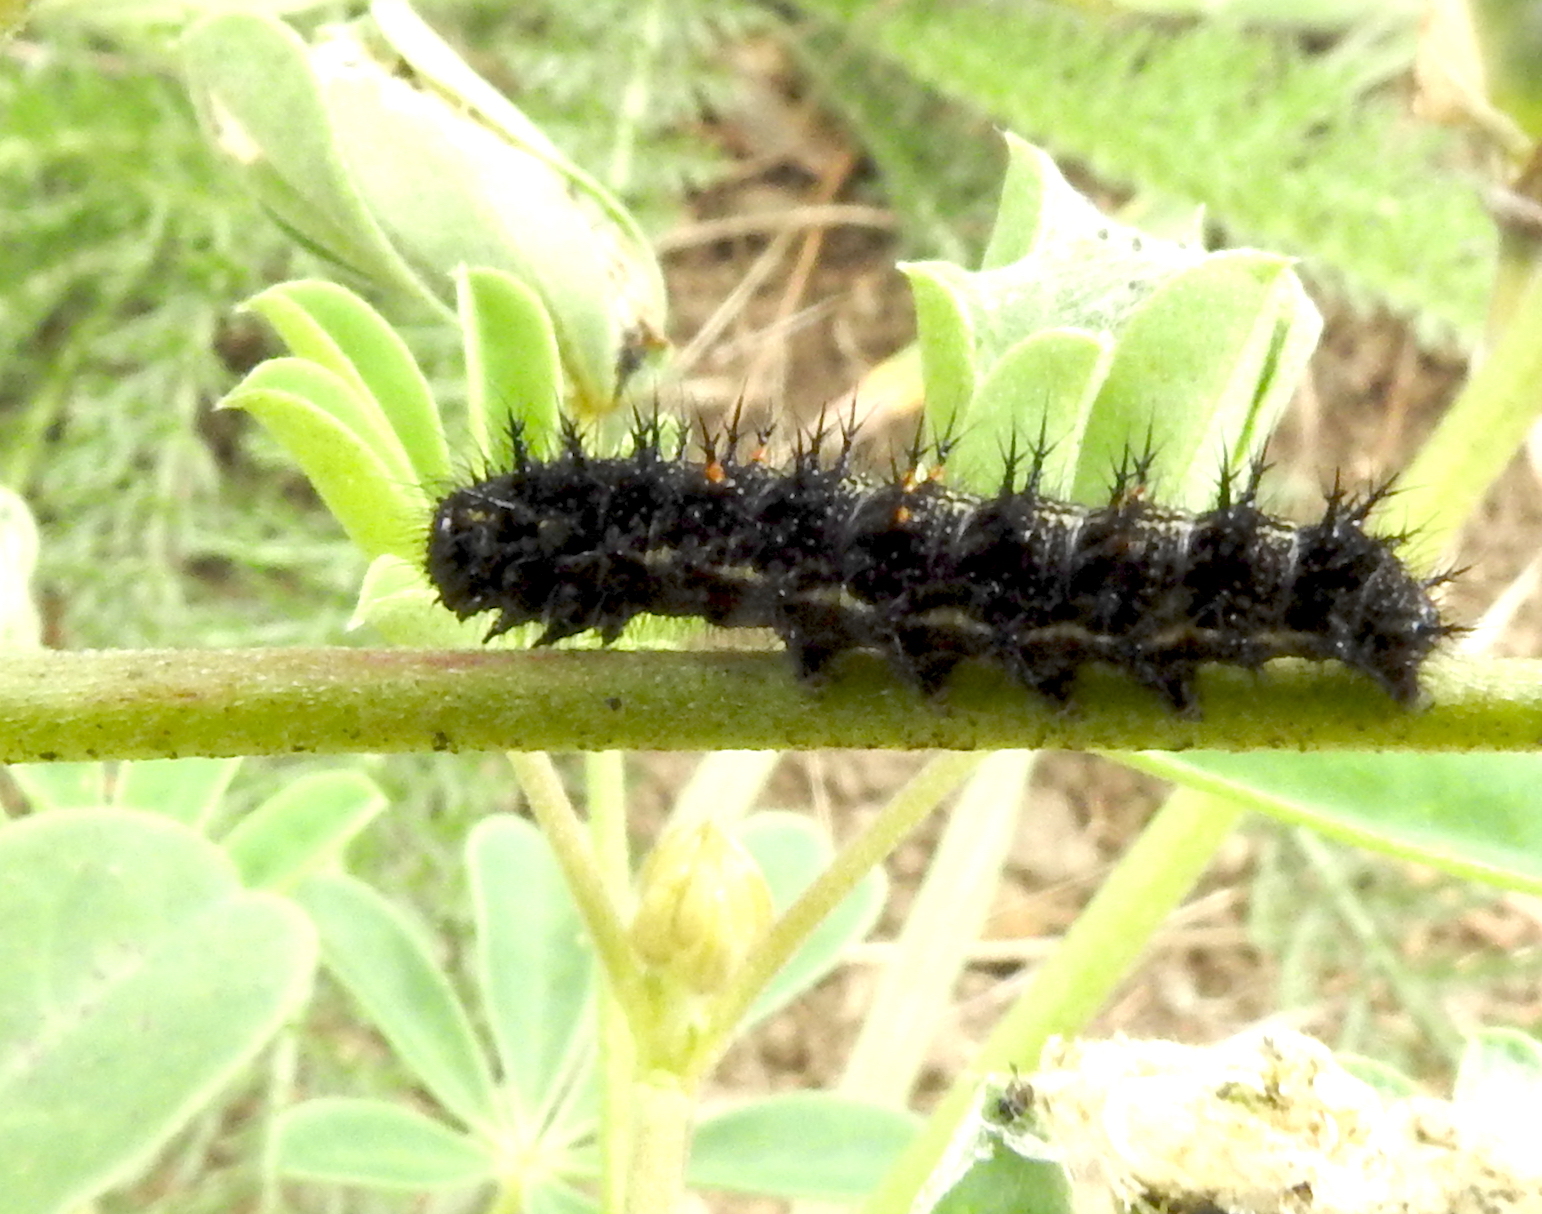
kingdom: Animalia
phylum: Arthropoda
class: Insecta
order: Lepidoptera
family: Nymphalidae
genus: Vanessa
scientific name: Vanessa cardui
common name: Painted lady
